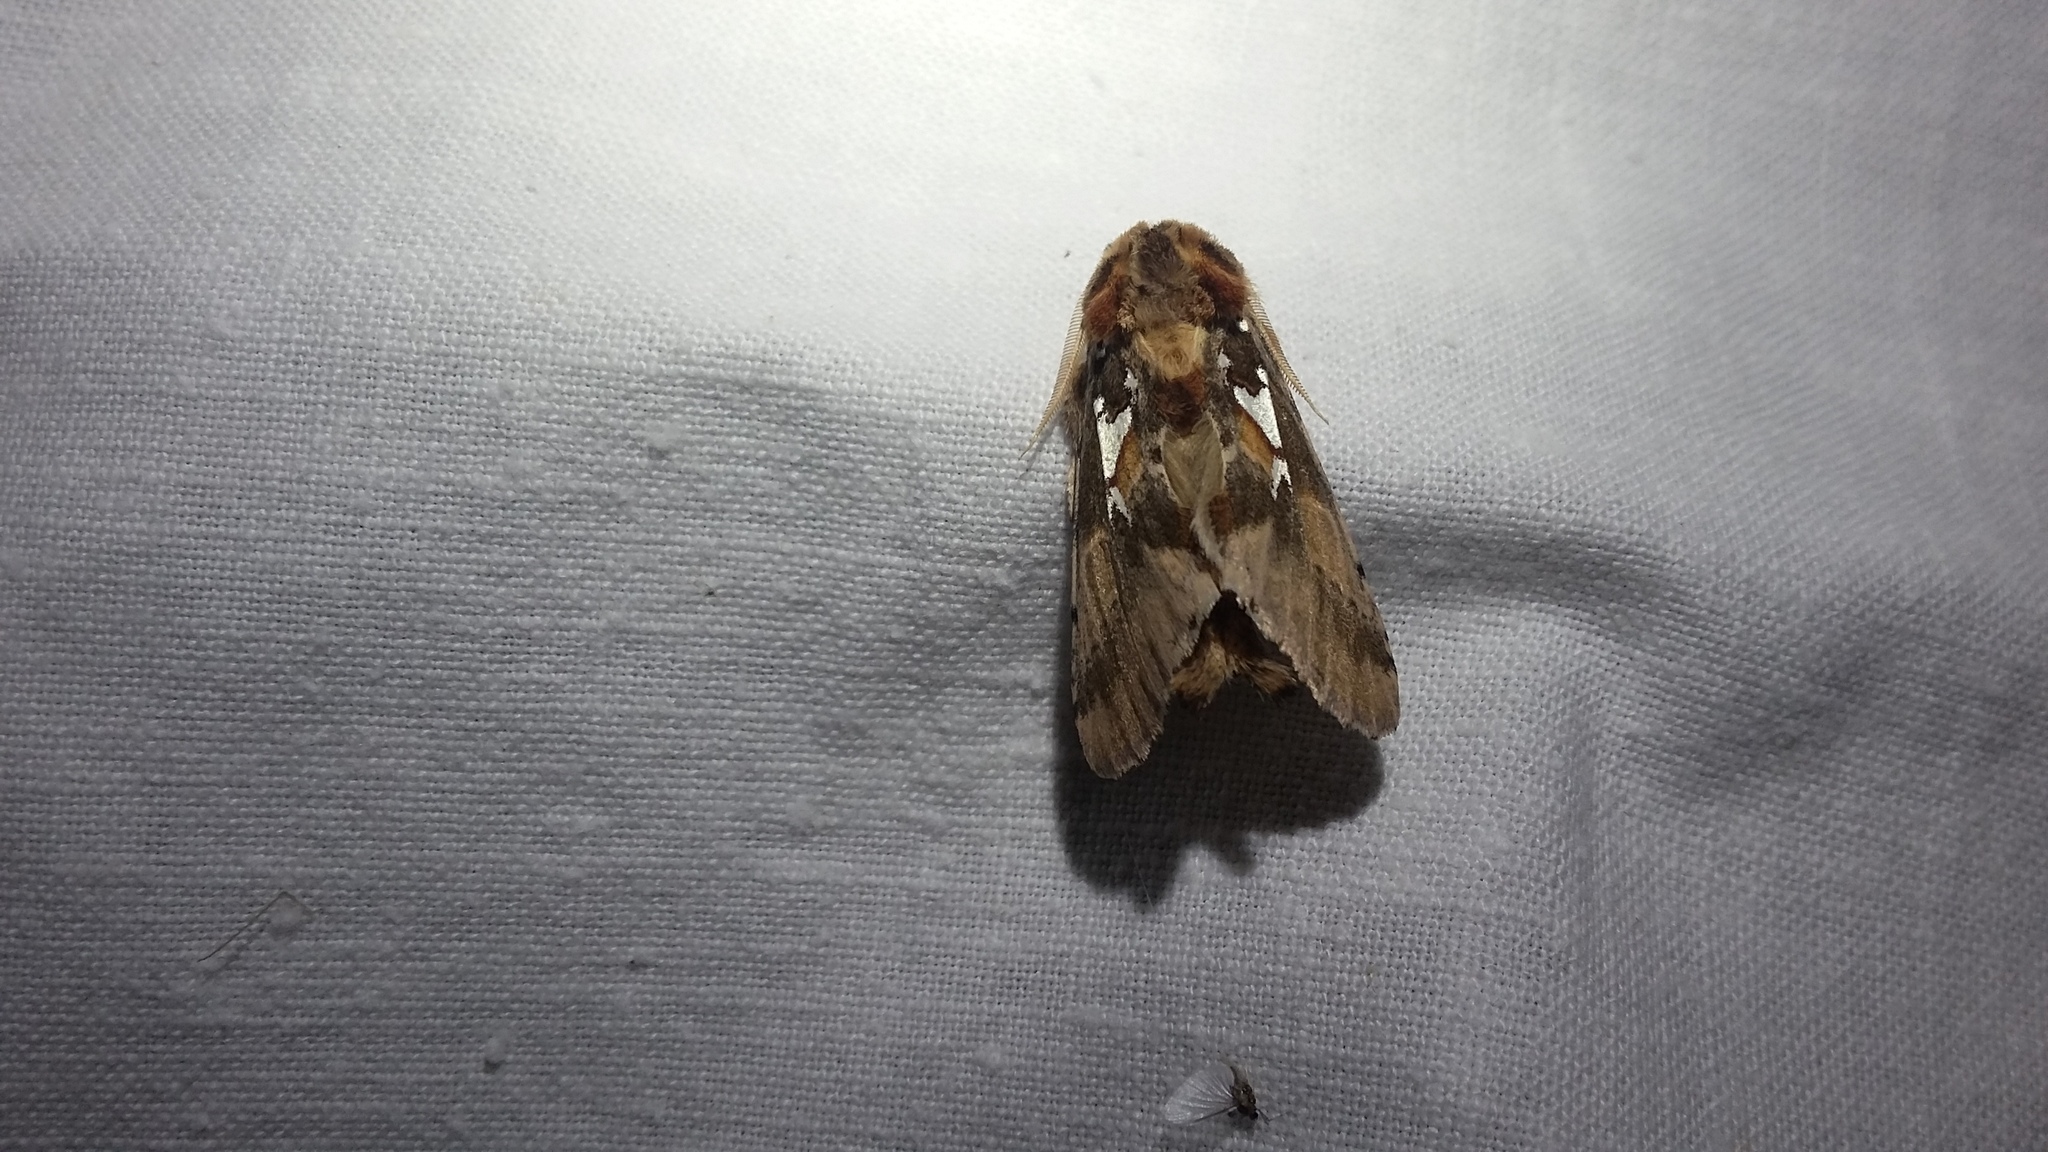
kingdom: Animalia
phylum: Arthropoda
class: Insecta
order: Lepidoptera
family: Notodontidae
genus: Spatalia
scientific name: Spatalia argentina
